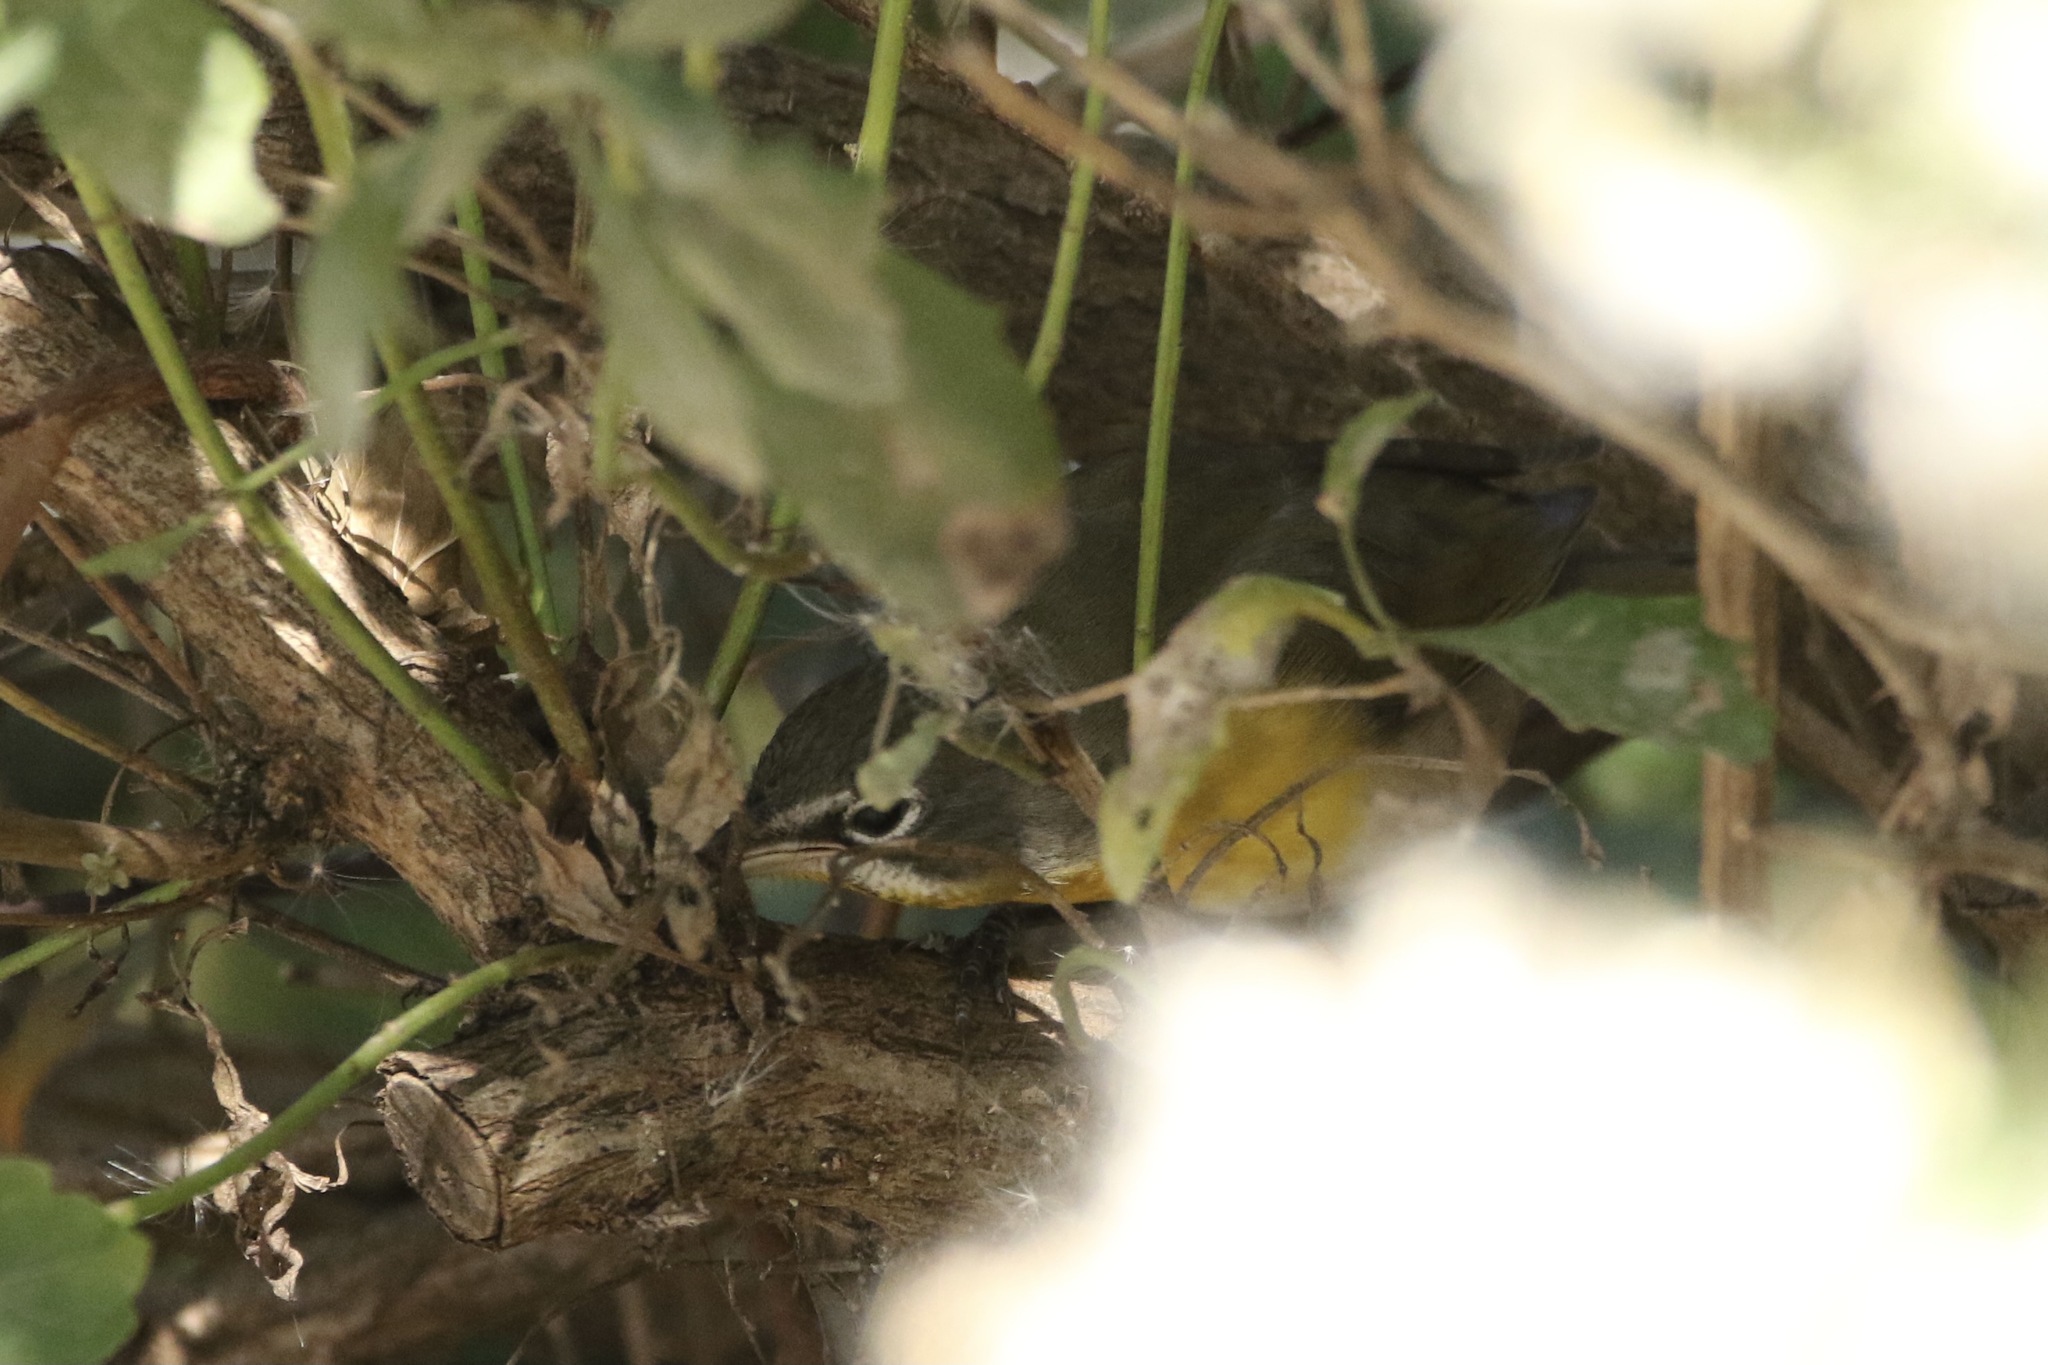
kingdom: Animalia
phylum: Chordata
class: Aves
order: Passeriformes
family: Parulidae
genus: Icteria
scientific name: Icteria virens
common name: Yellow-breasted chat
